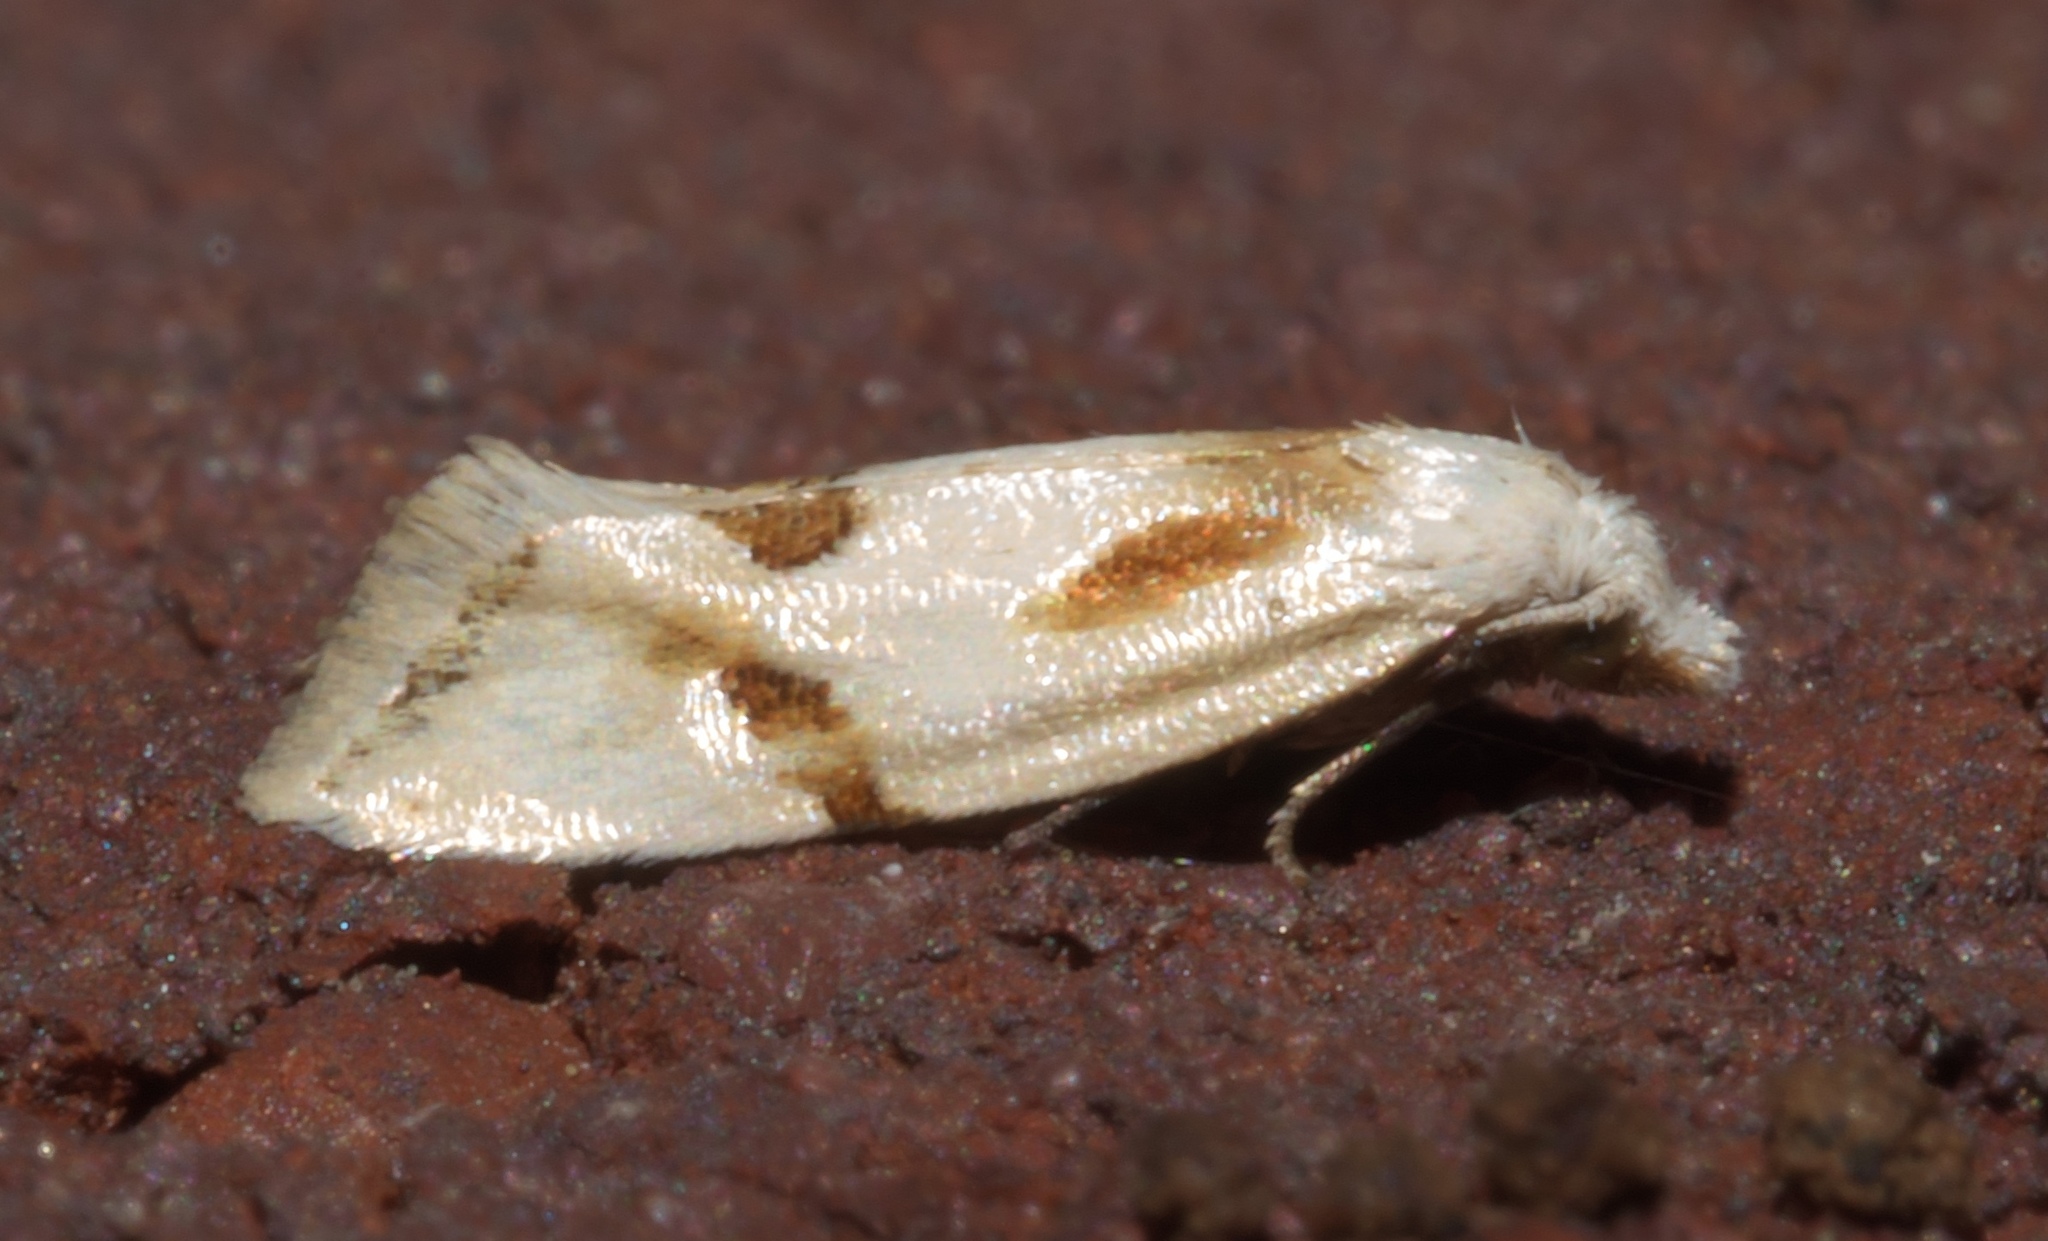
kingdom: Animalia
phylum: Arthropoda
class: Insecta
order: Lepidoptera
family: Tortricidae
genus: Aethes
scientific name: Aethes baloghi
